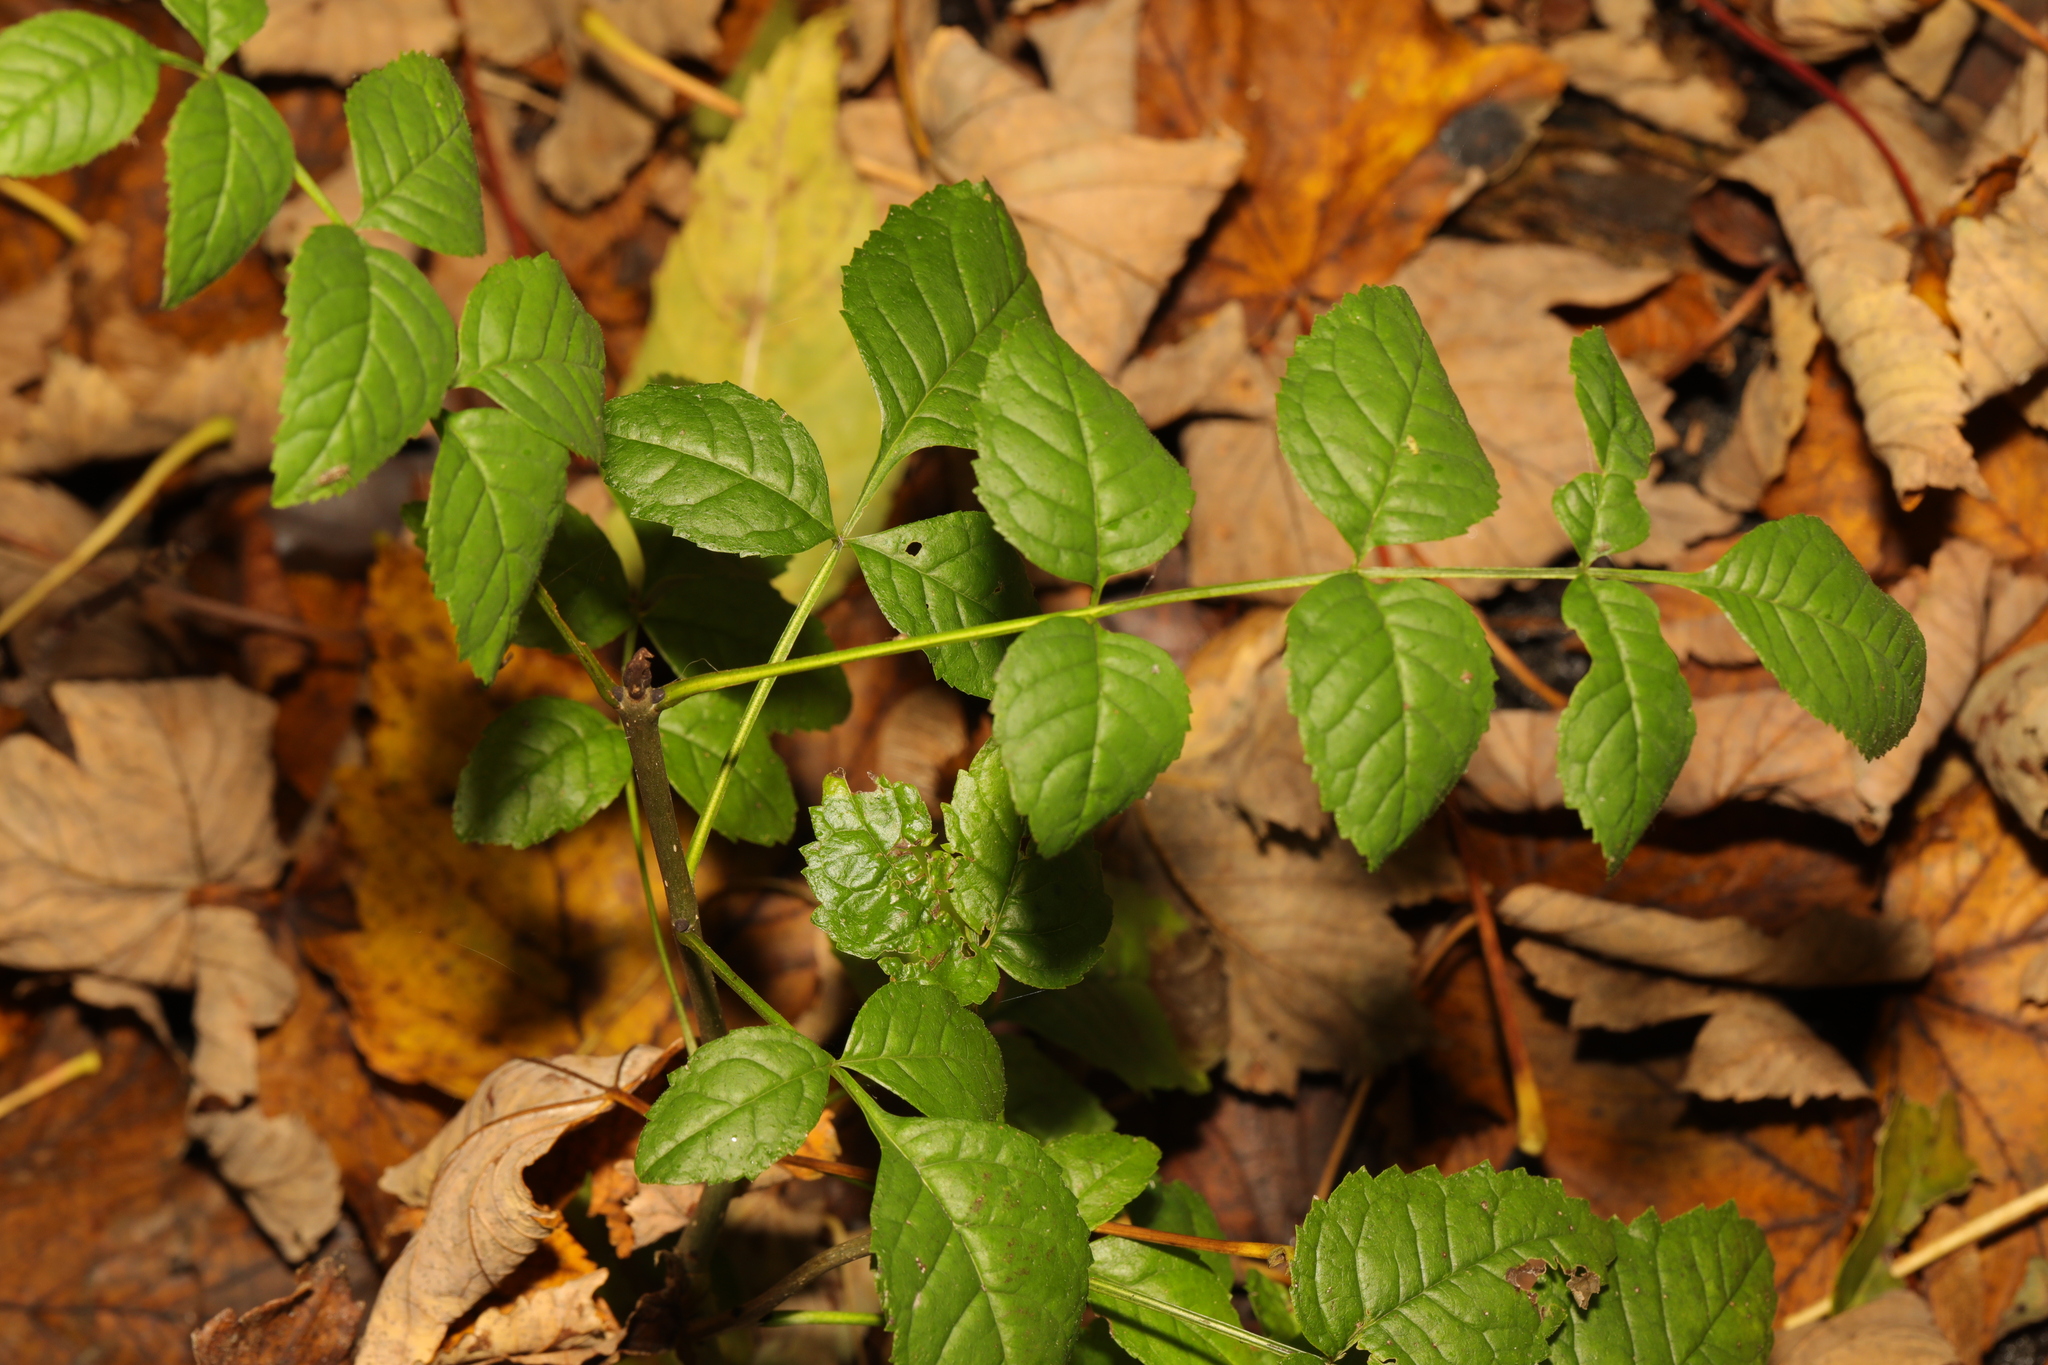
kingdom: Plantae
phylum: Tracheophyta
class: Magnoliopsida
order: Lamiales
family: Oleaceae
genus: Fraxinus
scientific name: Fraxinus excelsior
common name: European ash
